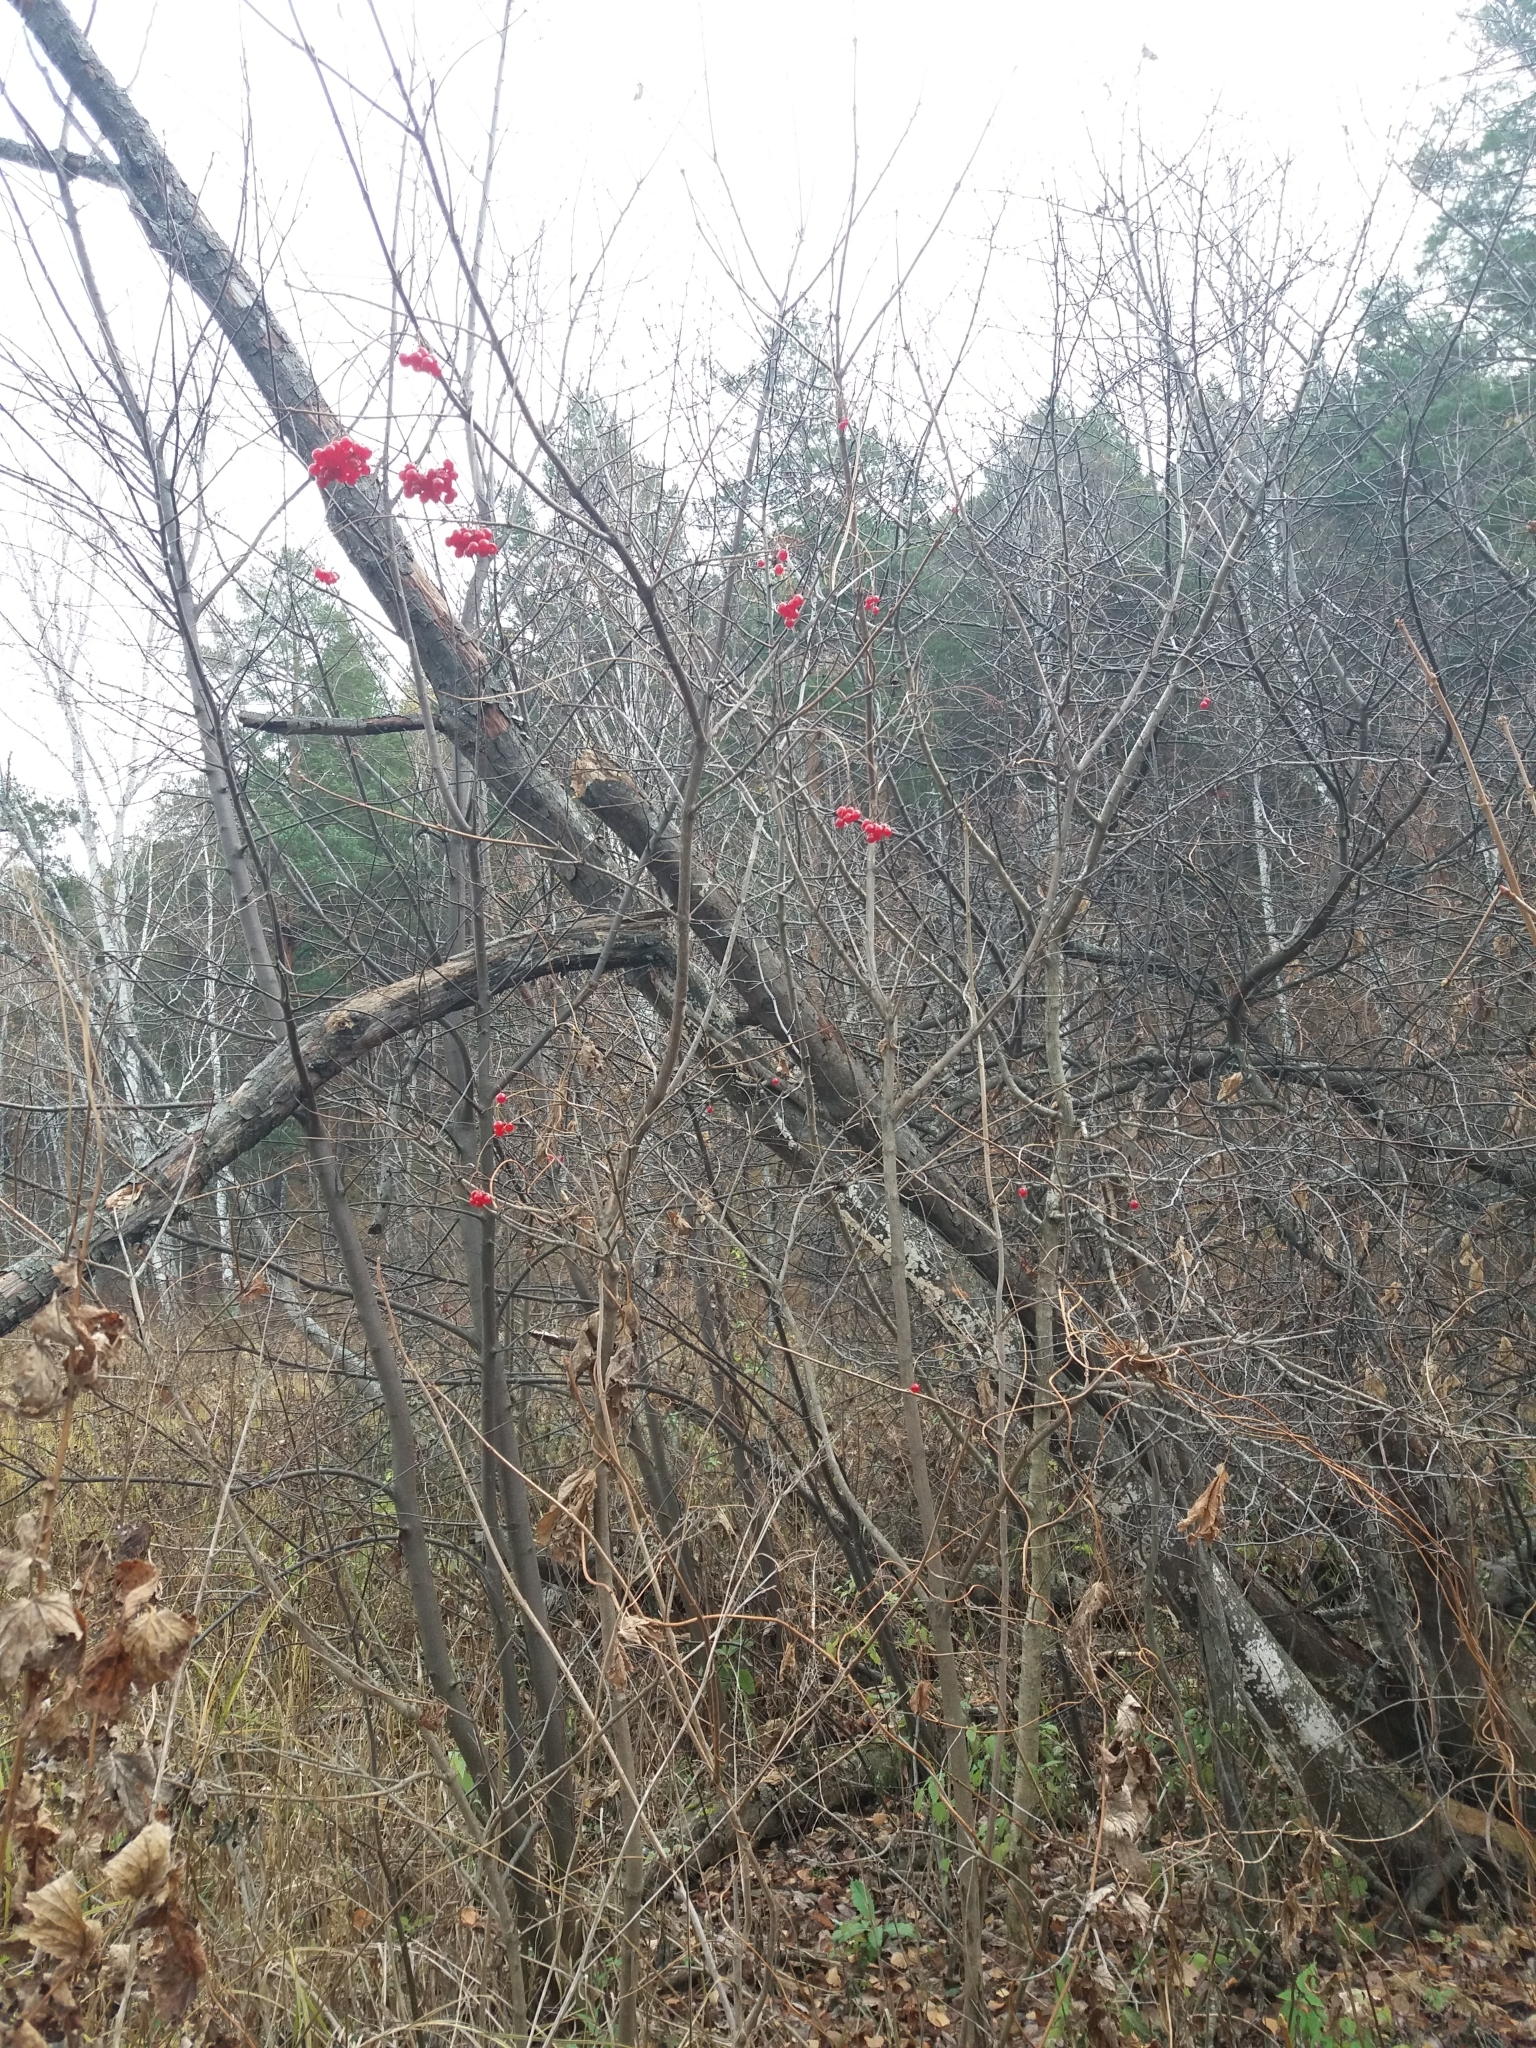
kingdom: Plantae
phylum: Tracheophyta
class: Magnoliopsida
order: Dipsacales
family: Viburnaceae
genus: Viburnum
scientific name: Viburnum opulus
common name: Guelder-rose
